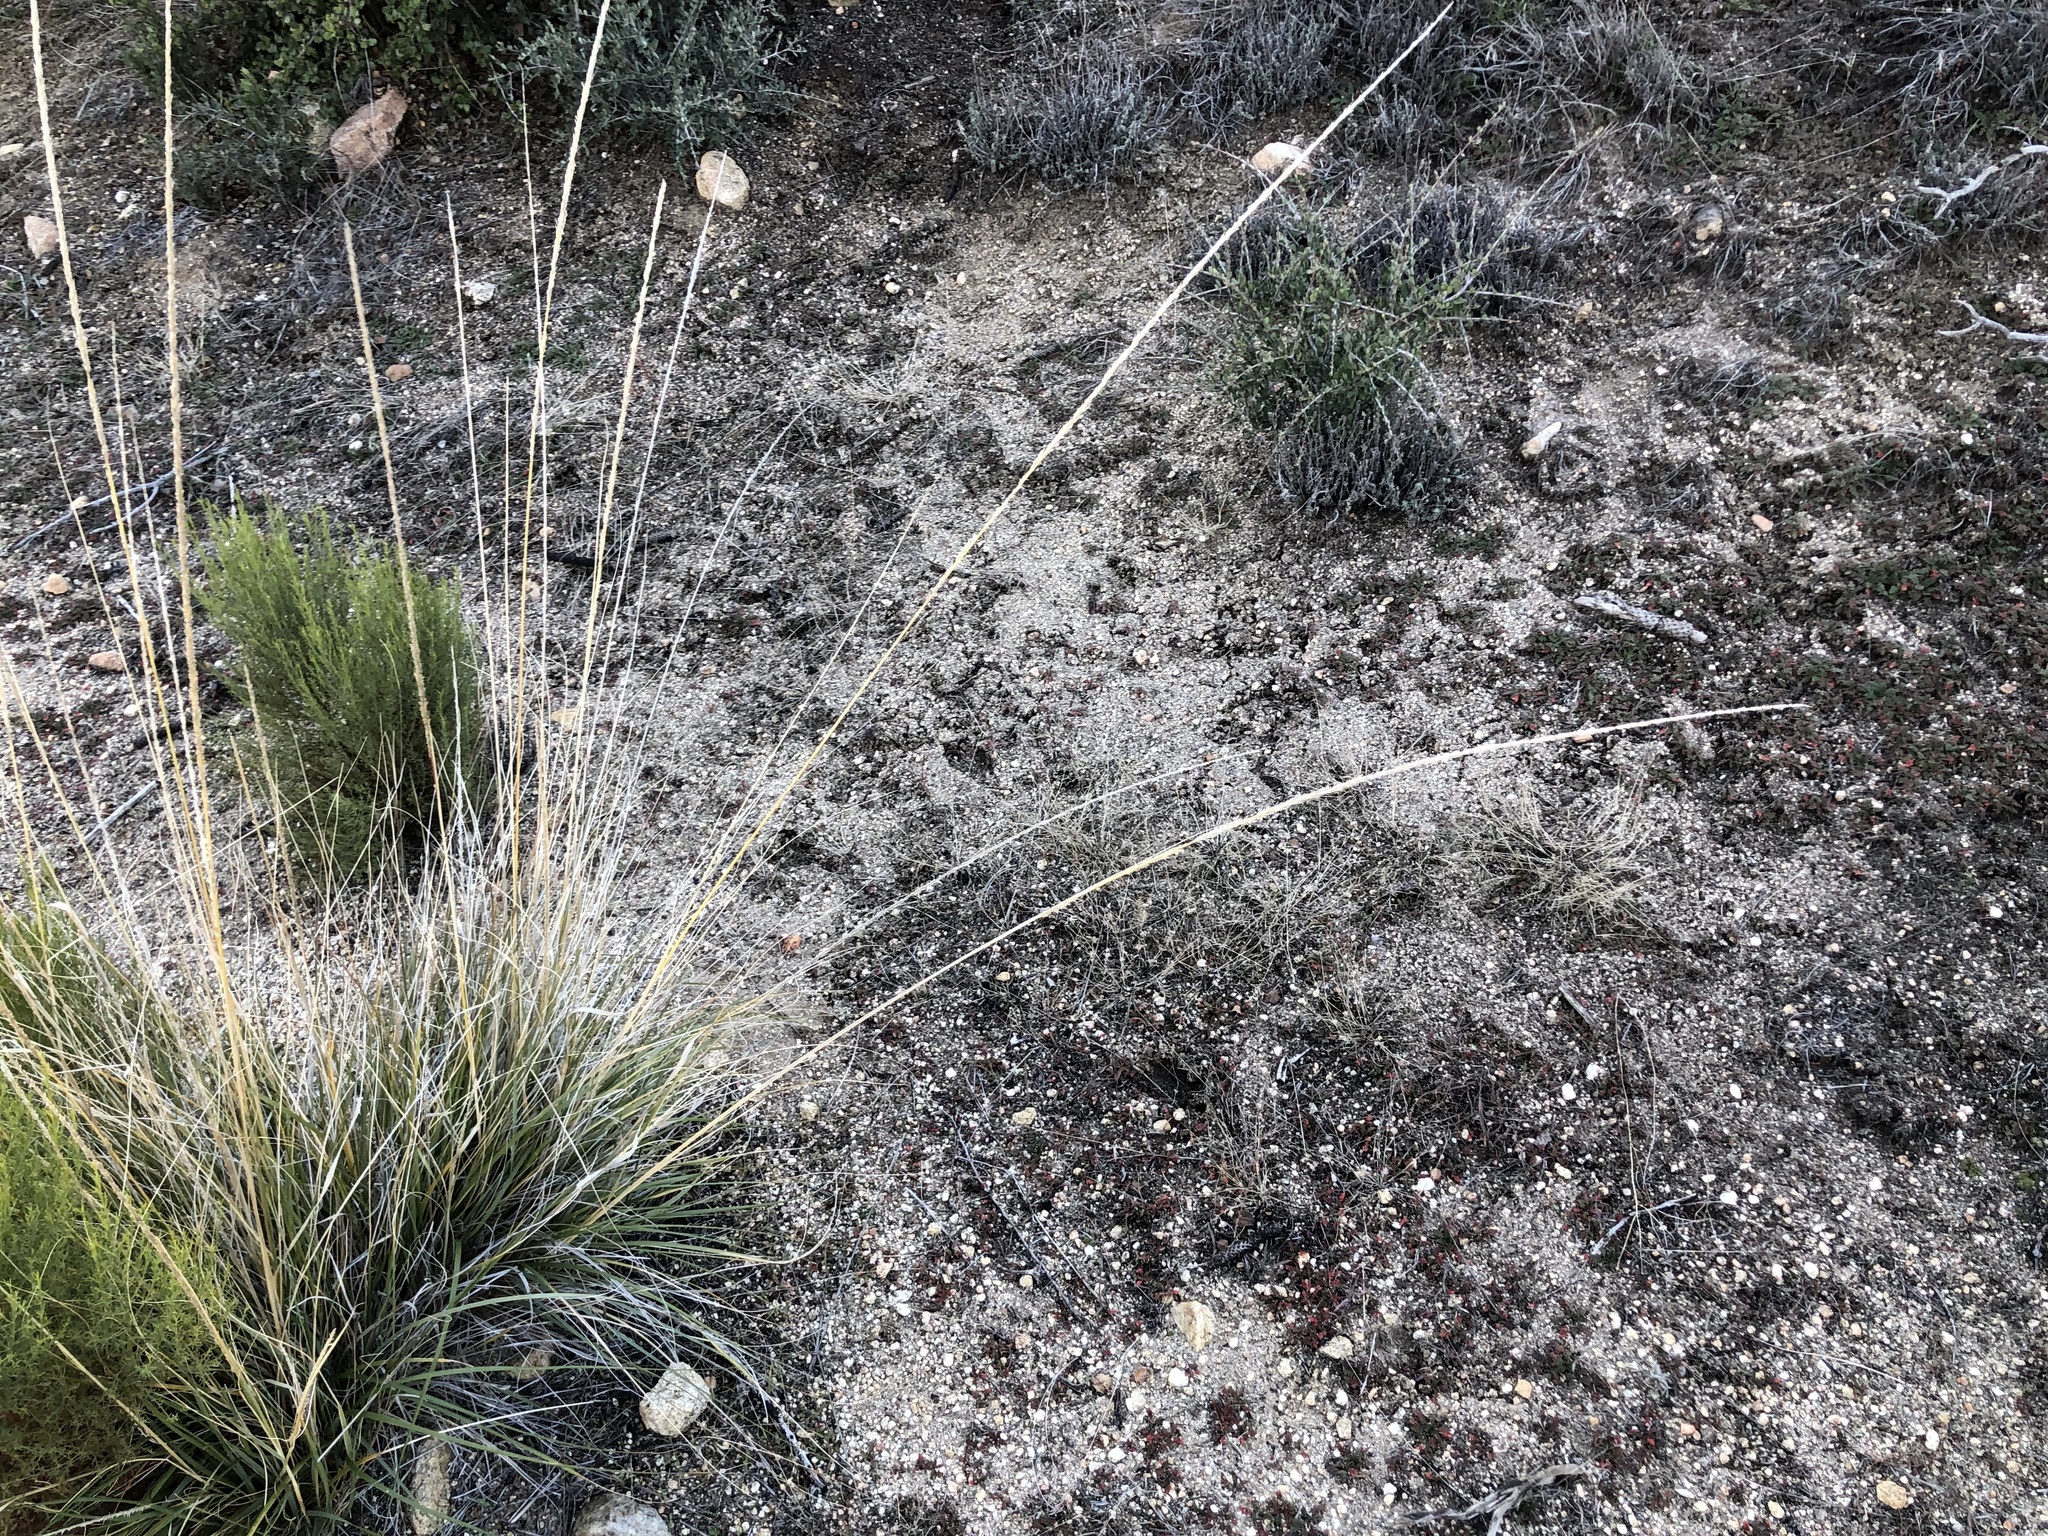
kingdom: Plantae
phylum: Tracheophyta
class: Liliopsida
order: Poales
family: Poaceae
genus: Muhlenbergia
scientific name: Muhlenbergia rigens
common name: Deer grass
